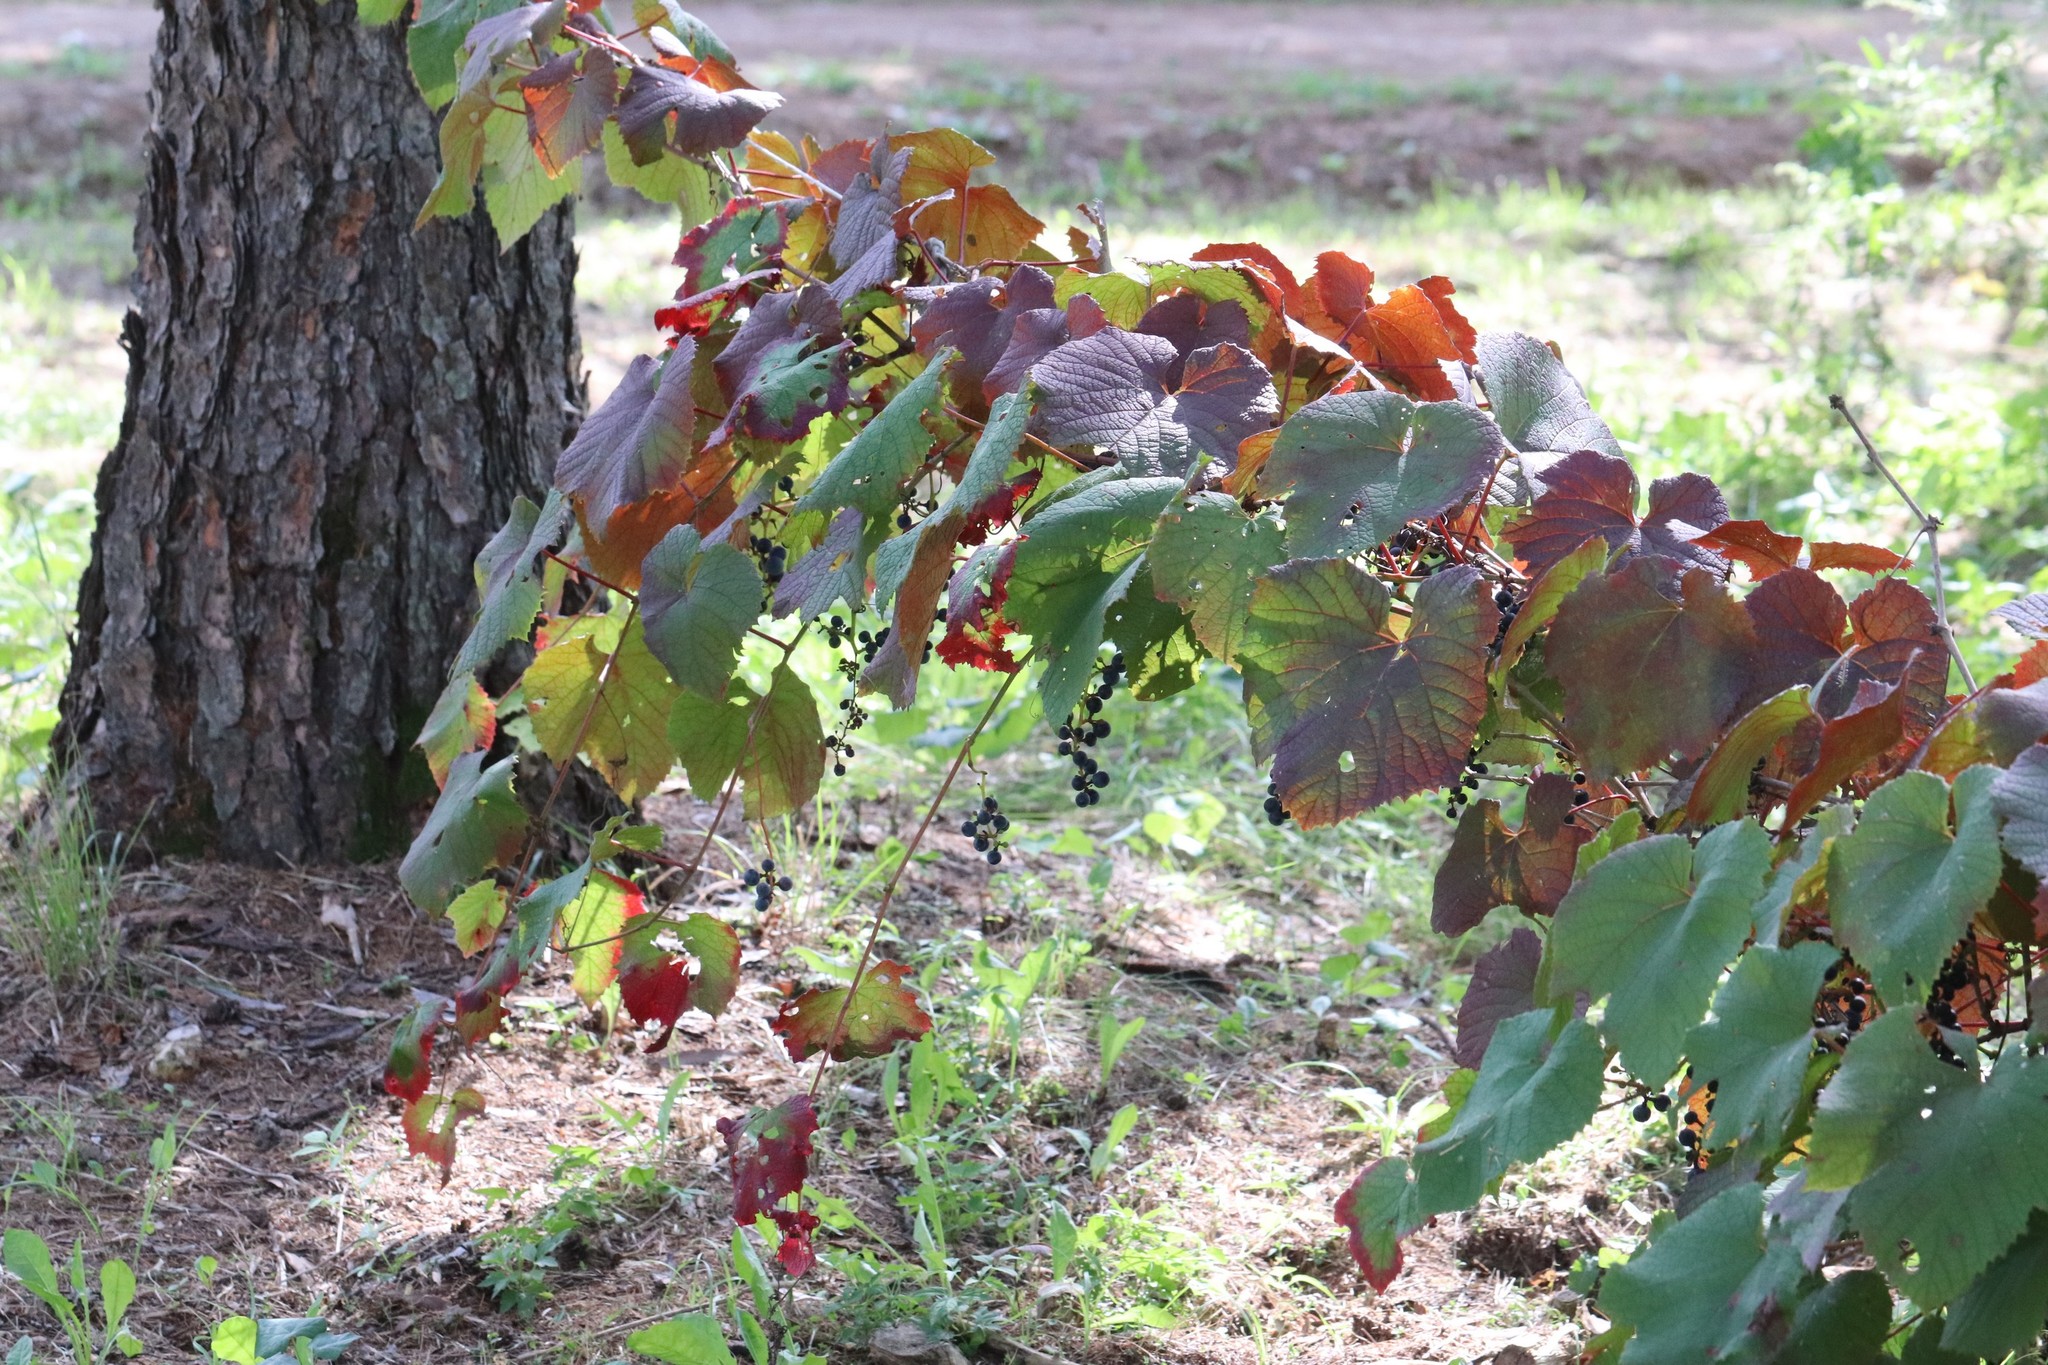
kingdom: Plantae
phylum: Tracheophyta
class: Magnoliopsida
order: Vitales
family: Vitaceae
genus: Vitis
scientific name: Vitis amurensis
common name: Amur grape
